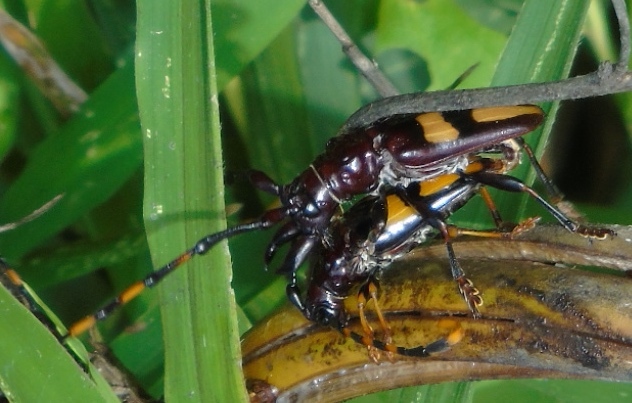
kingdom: Animalia
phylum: Arthropoda
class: Insecta
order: Coleoptera
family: Cerambycidae
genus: Trachyderes
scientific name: Trachyderes mandibularis
